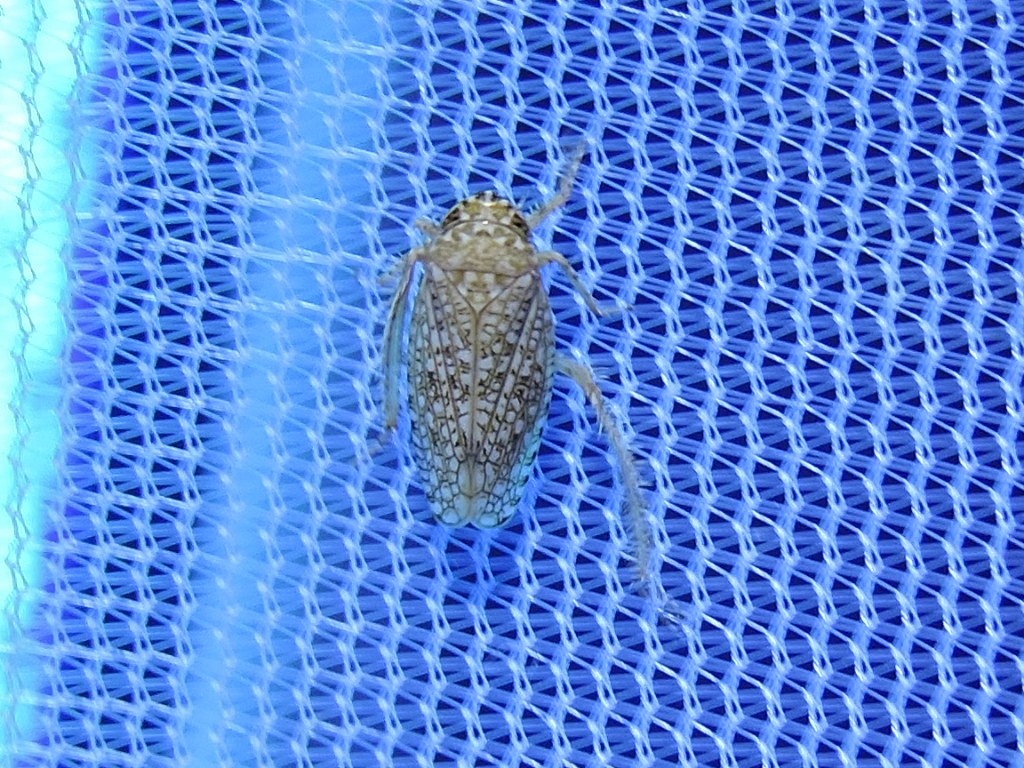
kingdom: Animalia
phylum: Arthropoda
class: Insecta
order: Hemiptera
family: Cicadellidae
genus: Texananus
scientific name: Texananus areolatus
